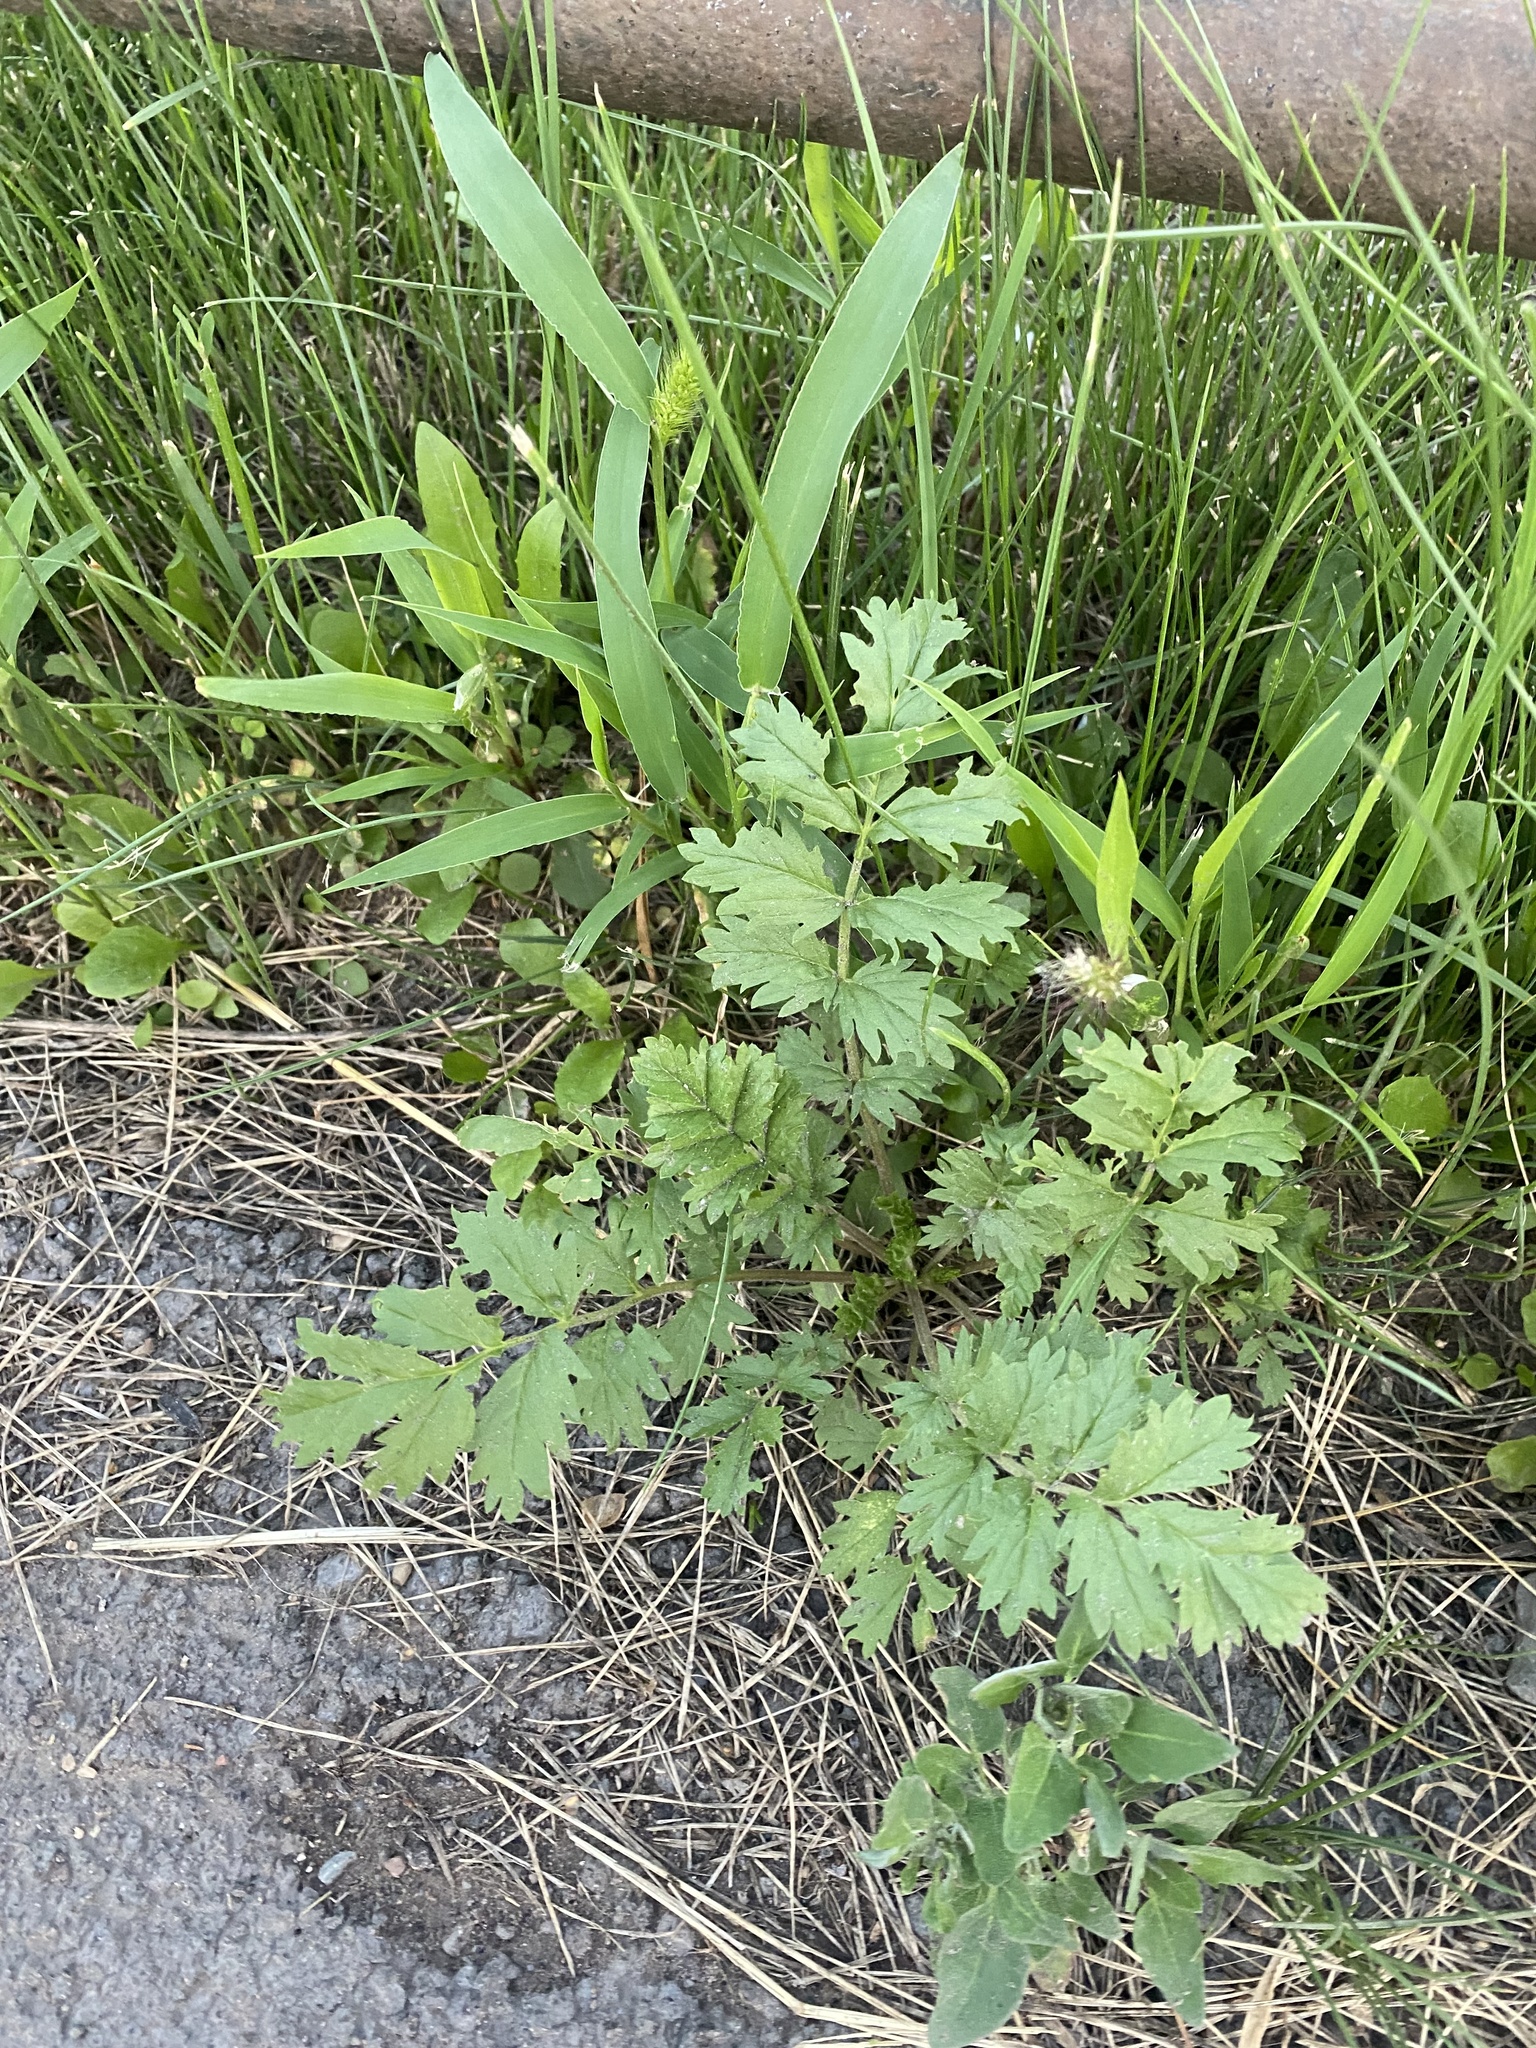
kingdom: Plantae
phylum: Tracheophyta
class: Magnoliopsida
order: Rosales
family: Rosaceae
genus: Potentilla
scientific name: Potentilla supina
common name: Prostrate cinquefoil
